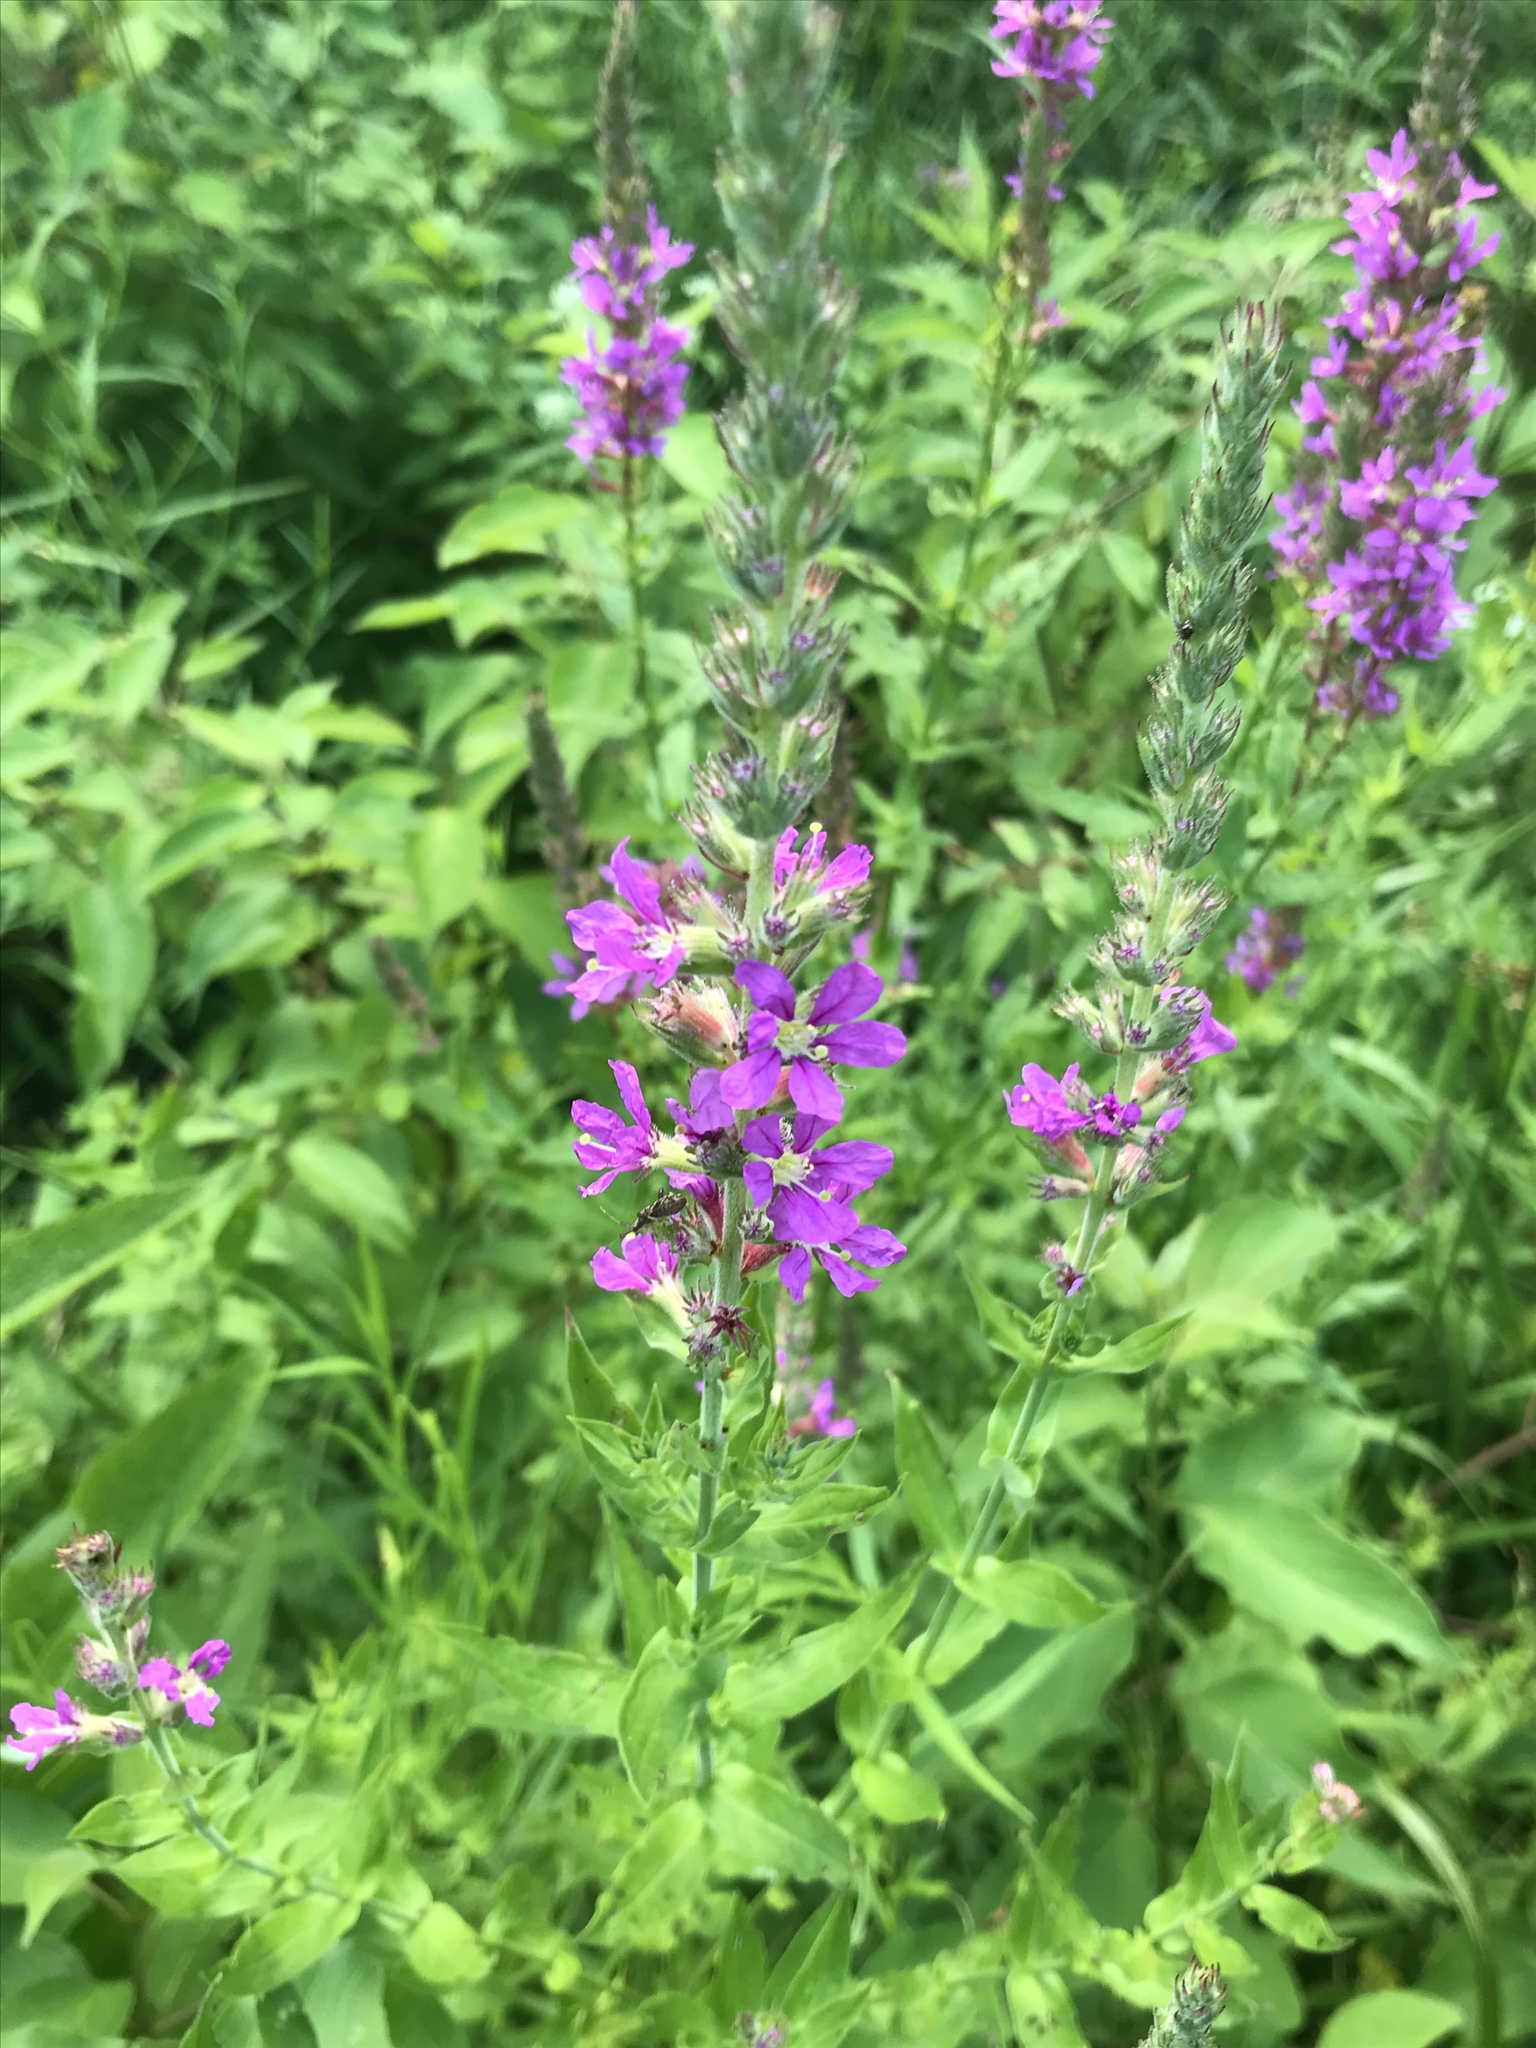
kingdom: Plantae
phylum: Tracheophyta
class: Magnoliopsida
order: Myrtales
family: Lythraceae
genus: Lythrum
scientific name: Lythrum salicaria
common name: Purple loosestrife
